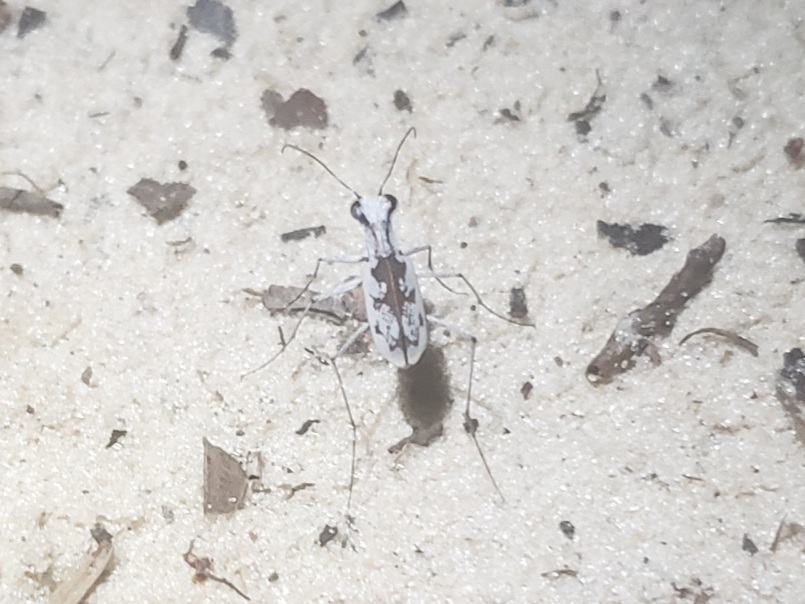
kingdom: Animalia
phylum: Arthropoda
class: Insecta
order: Coleoptera
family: Carabidae
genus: Ellipsoptera
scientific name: Ellipsoptera hirtilabris
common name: Moustached tiger beetle
